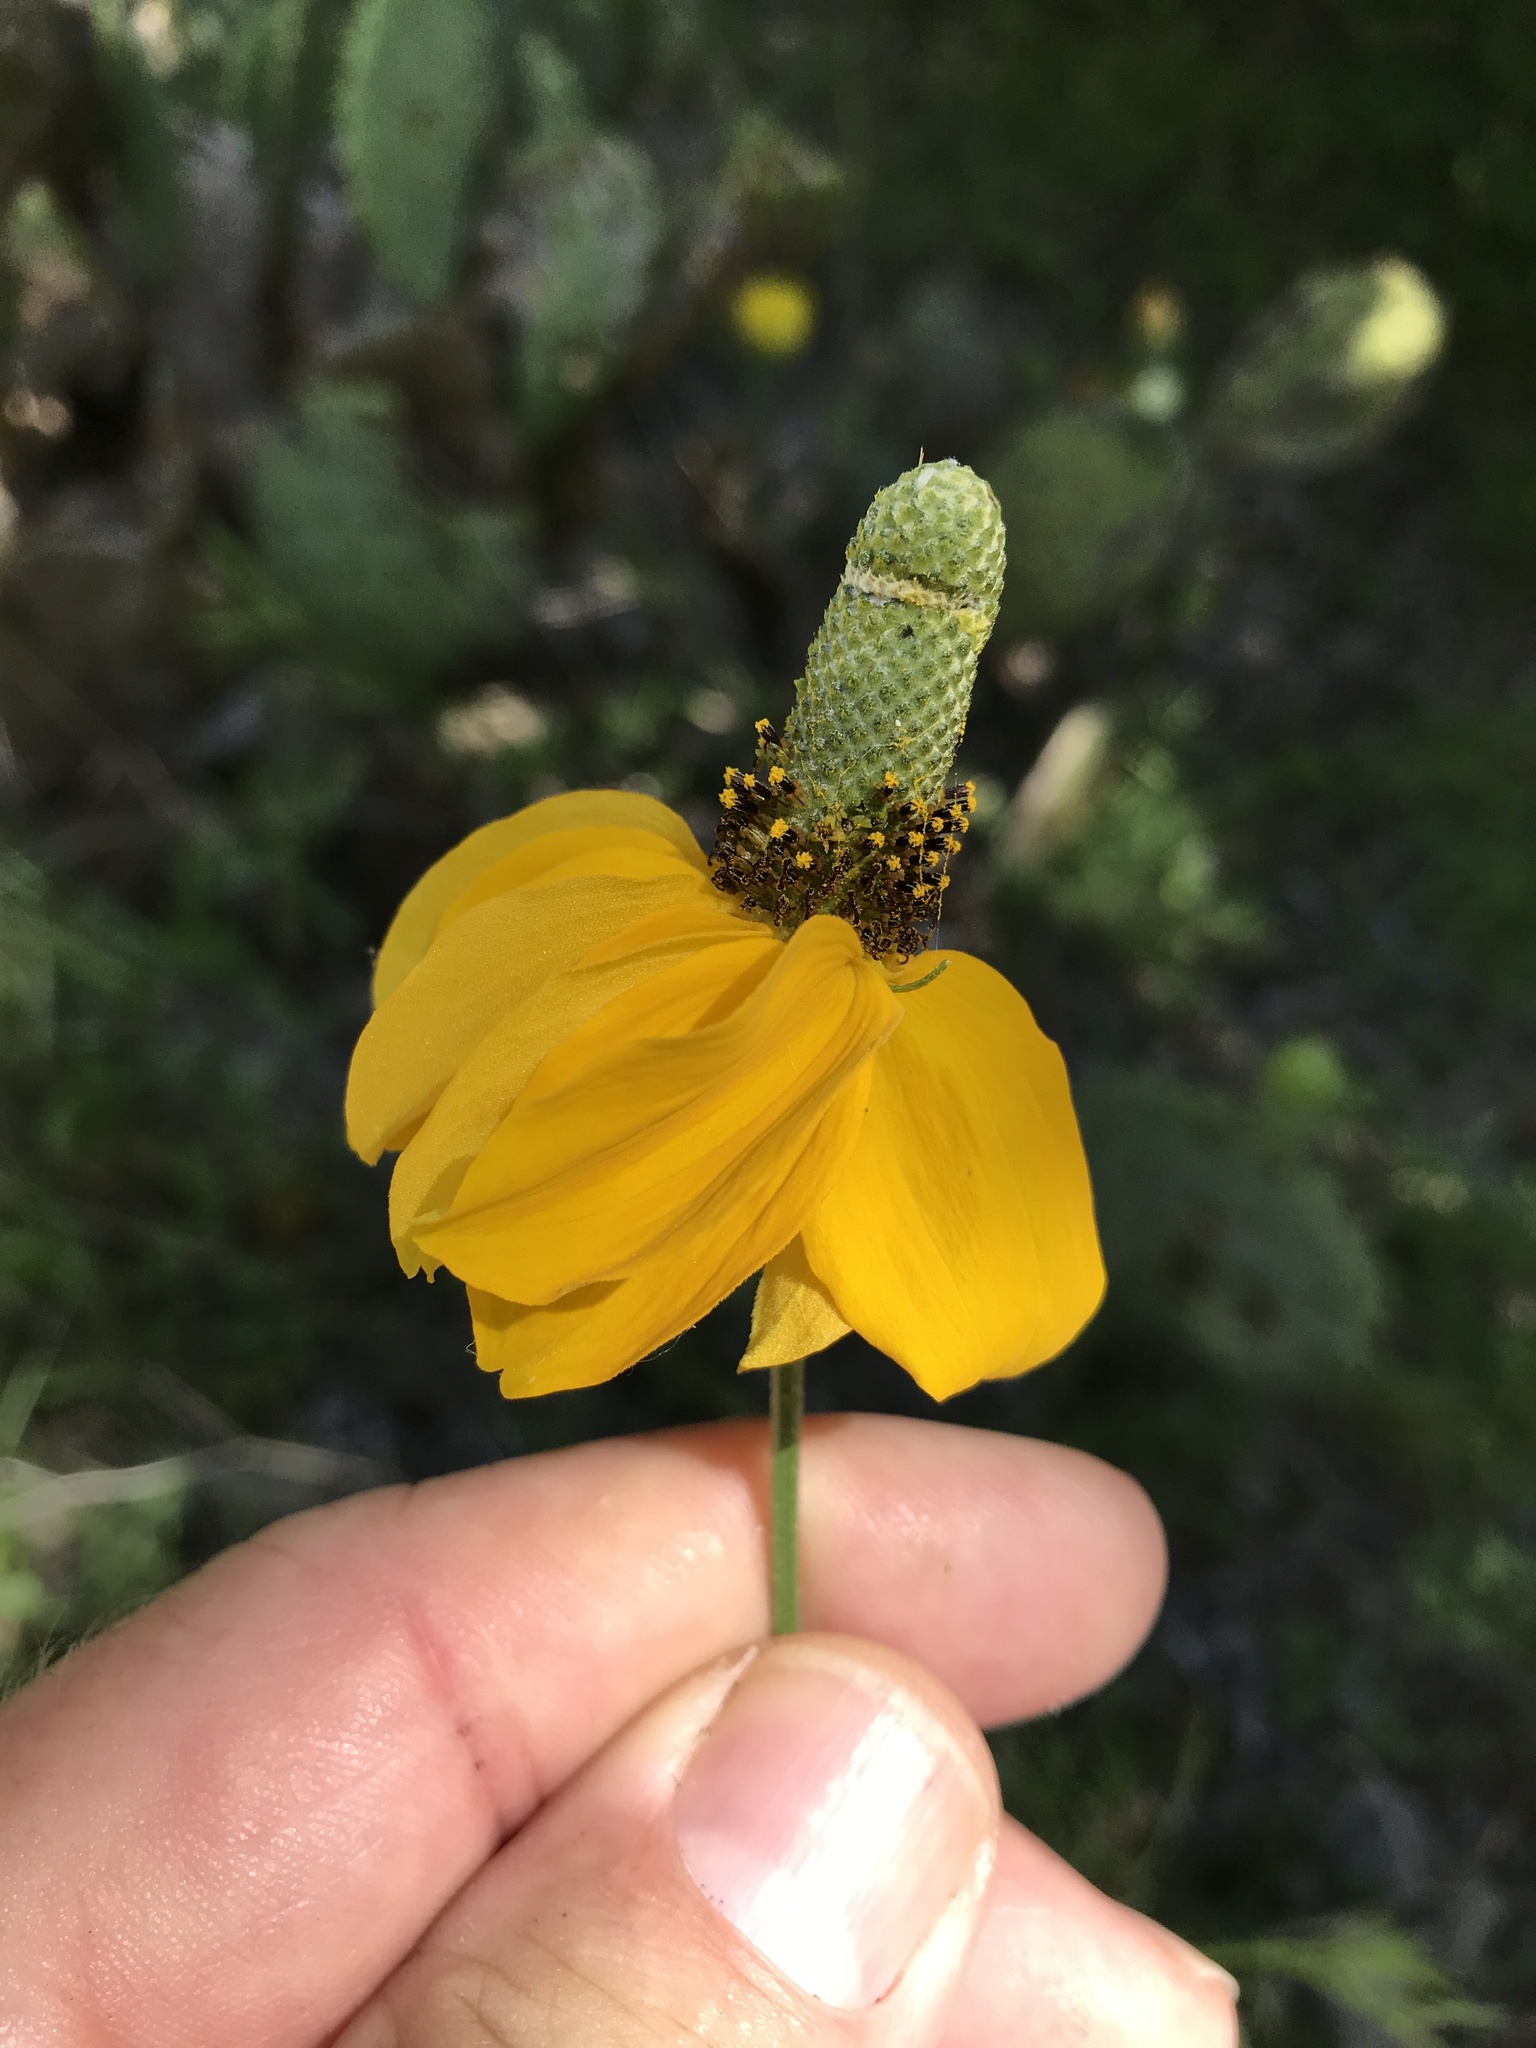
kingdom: Plantae
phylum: Tracheophyta
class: Magnoliopsida
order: Asterales
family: Asteraceae
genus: Ratibida
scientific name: Ratibida columnifera
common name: Prairie coneflower
